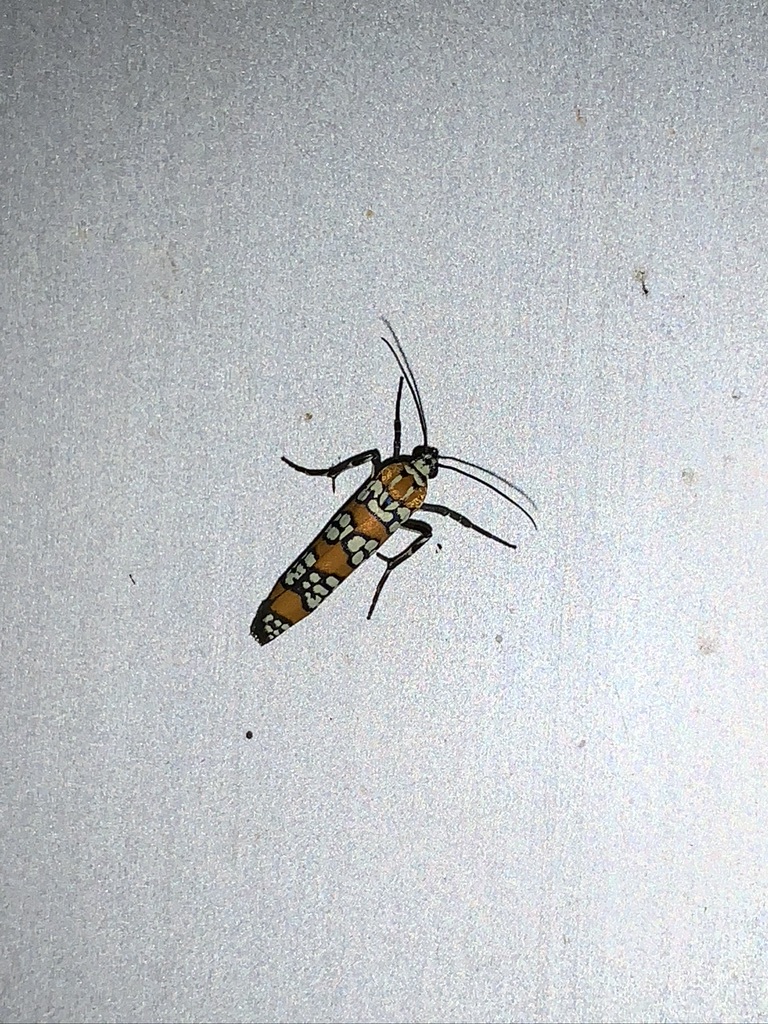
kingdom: Animalia
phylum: Arthropoda
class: Insecta
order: Lepidoptera
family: Attevidae
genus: Atteva
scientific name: Atteva punctella
